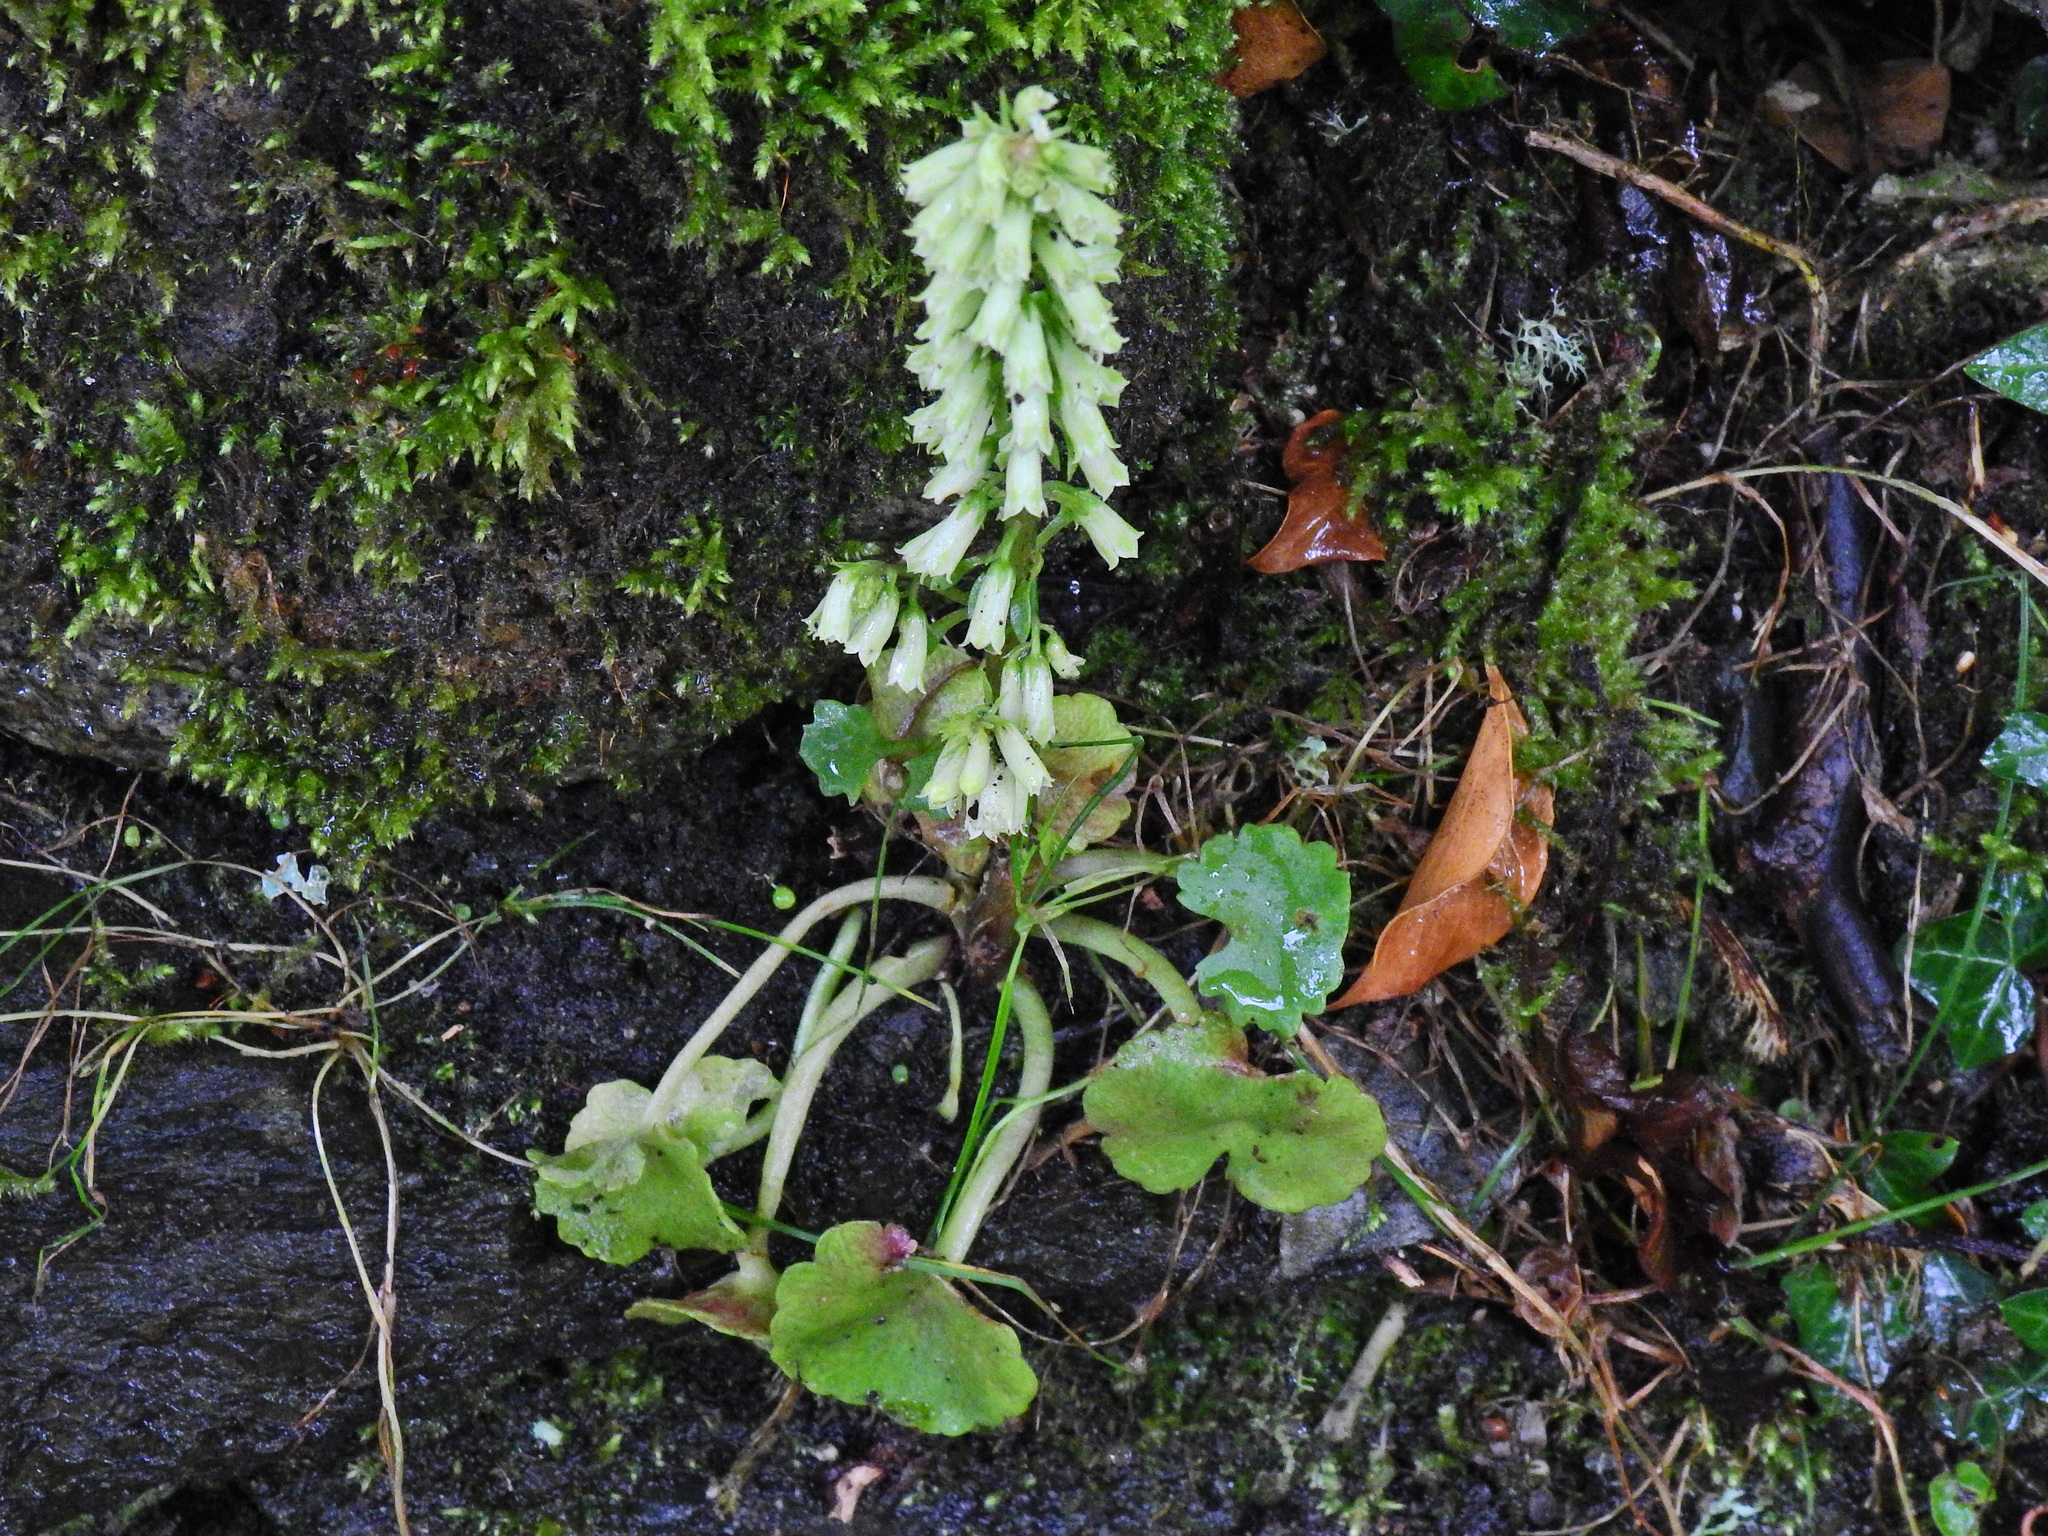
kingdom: Plantae
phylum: Tracheophyta
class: Magnoliopsida
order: Saxifragales
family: Crassulaceae
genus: Umbilicus
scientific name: Umbilicus rupestris
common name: Navelwort
